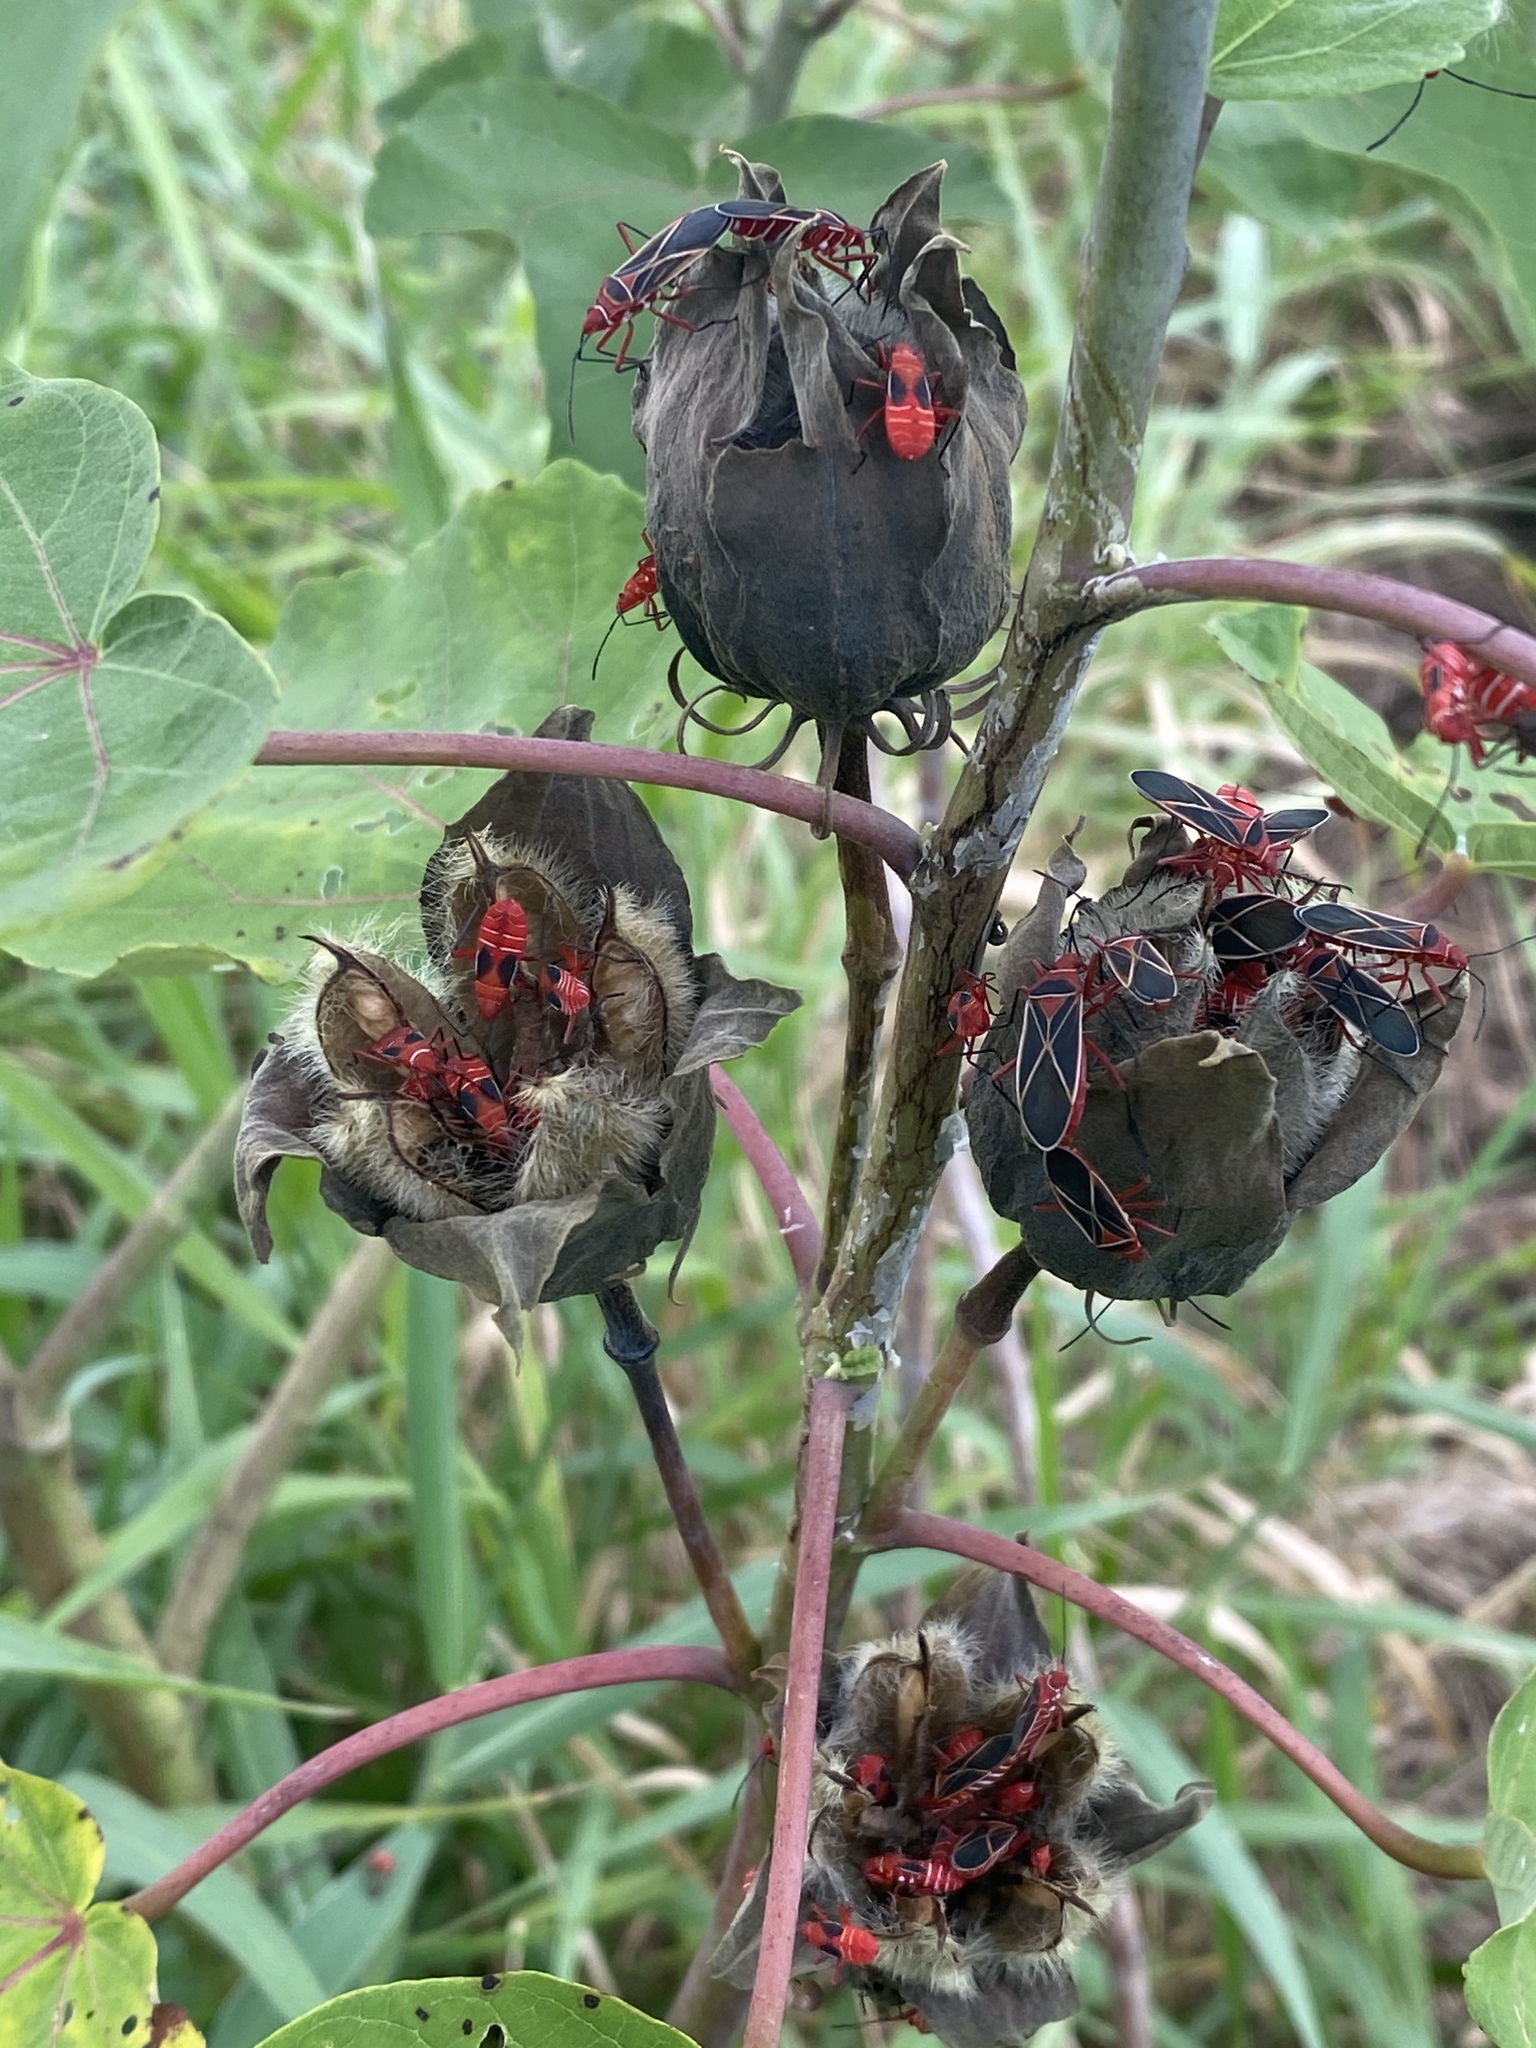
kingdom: Animalia
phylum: Arthropoda
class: Insecta
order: Hemiptera
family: Pyrrhocoridae
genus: Dysdercus
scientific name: Dysdercus suturellus
